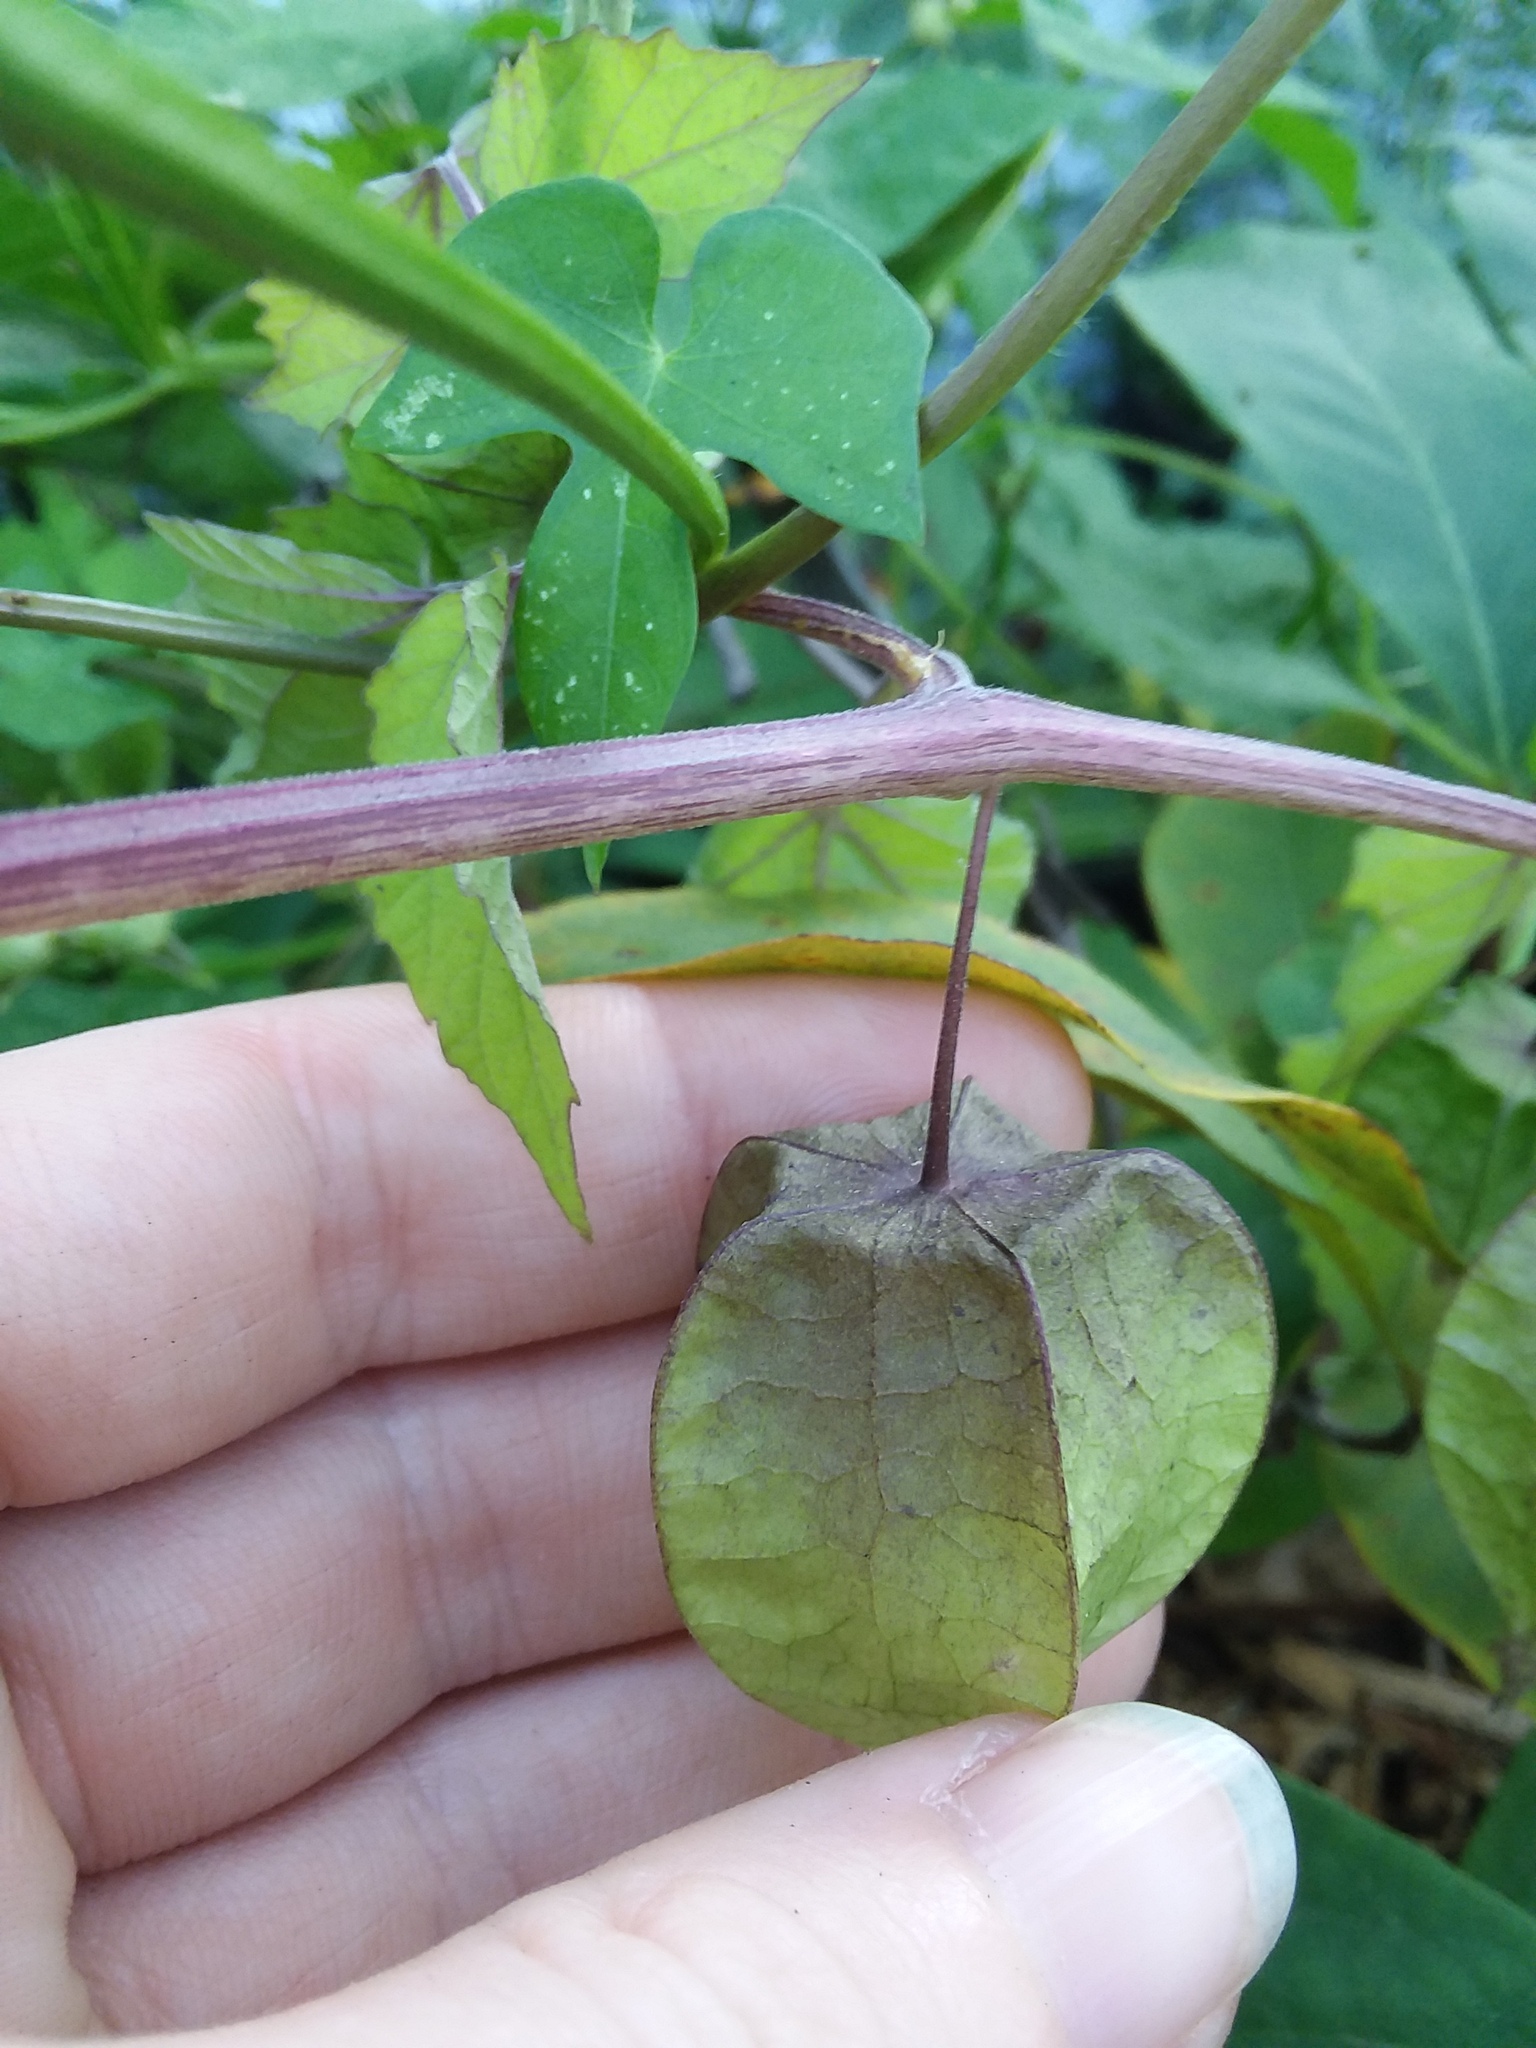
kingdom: Plantae
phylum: Tracheophyta
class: Magnoliopsida
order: Solanales
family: Solanaceae
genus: Physalis
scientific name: Physalis cordata
